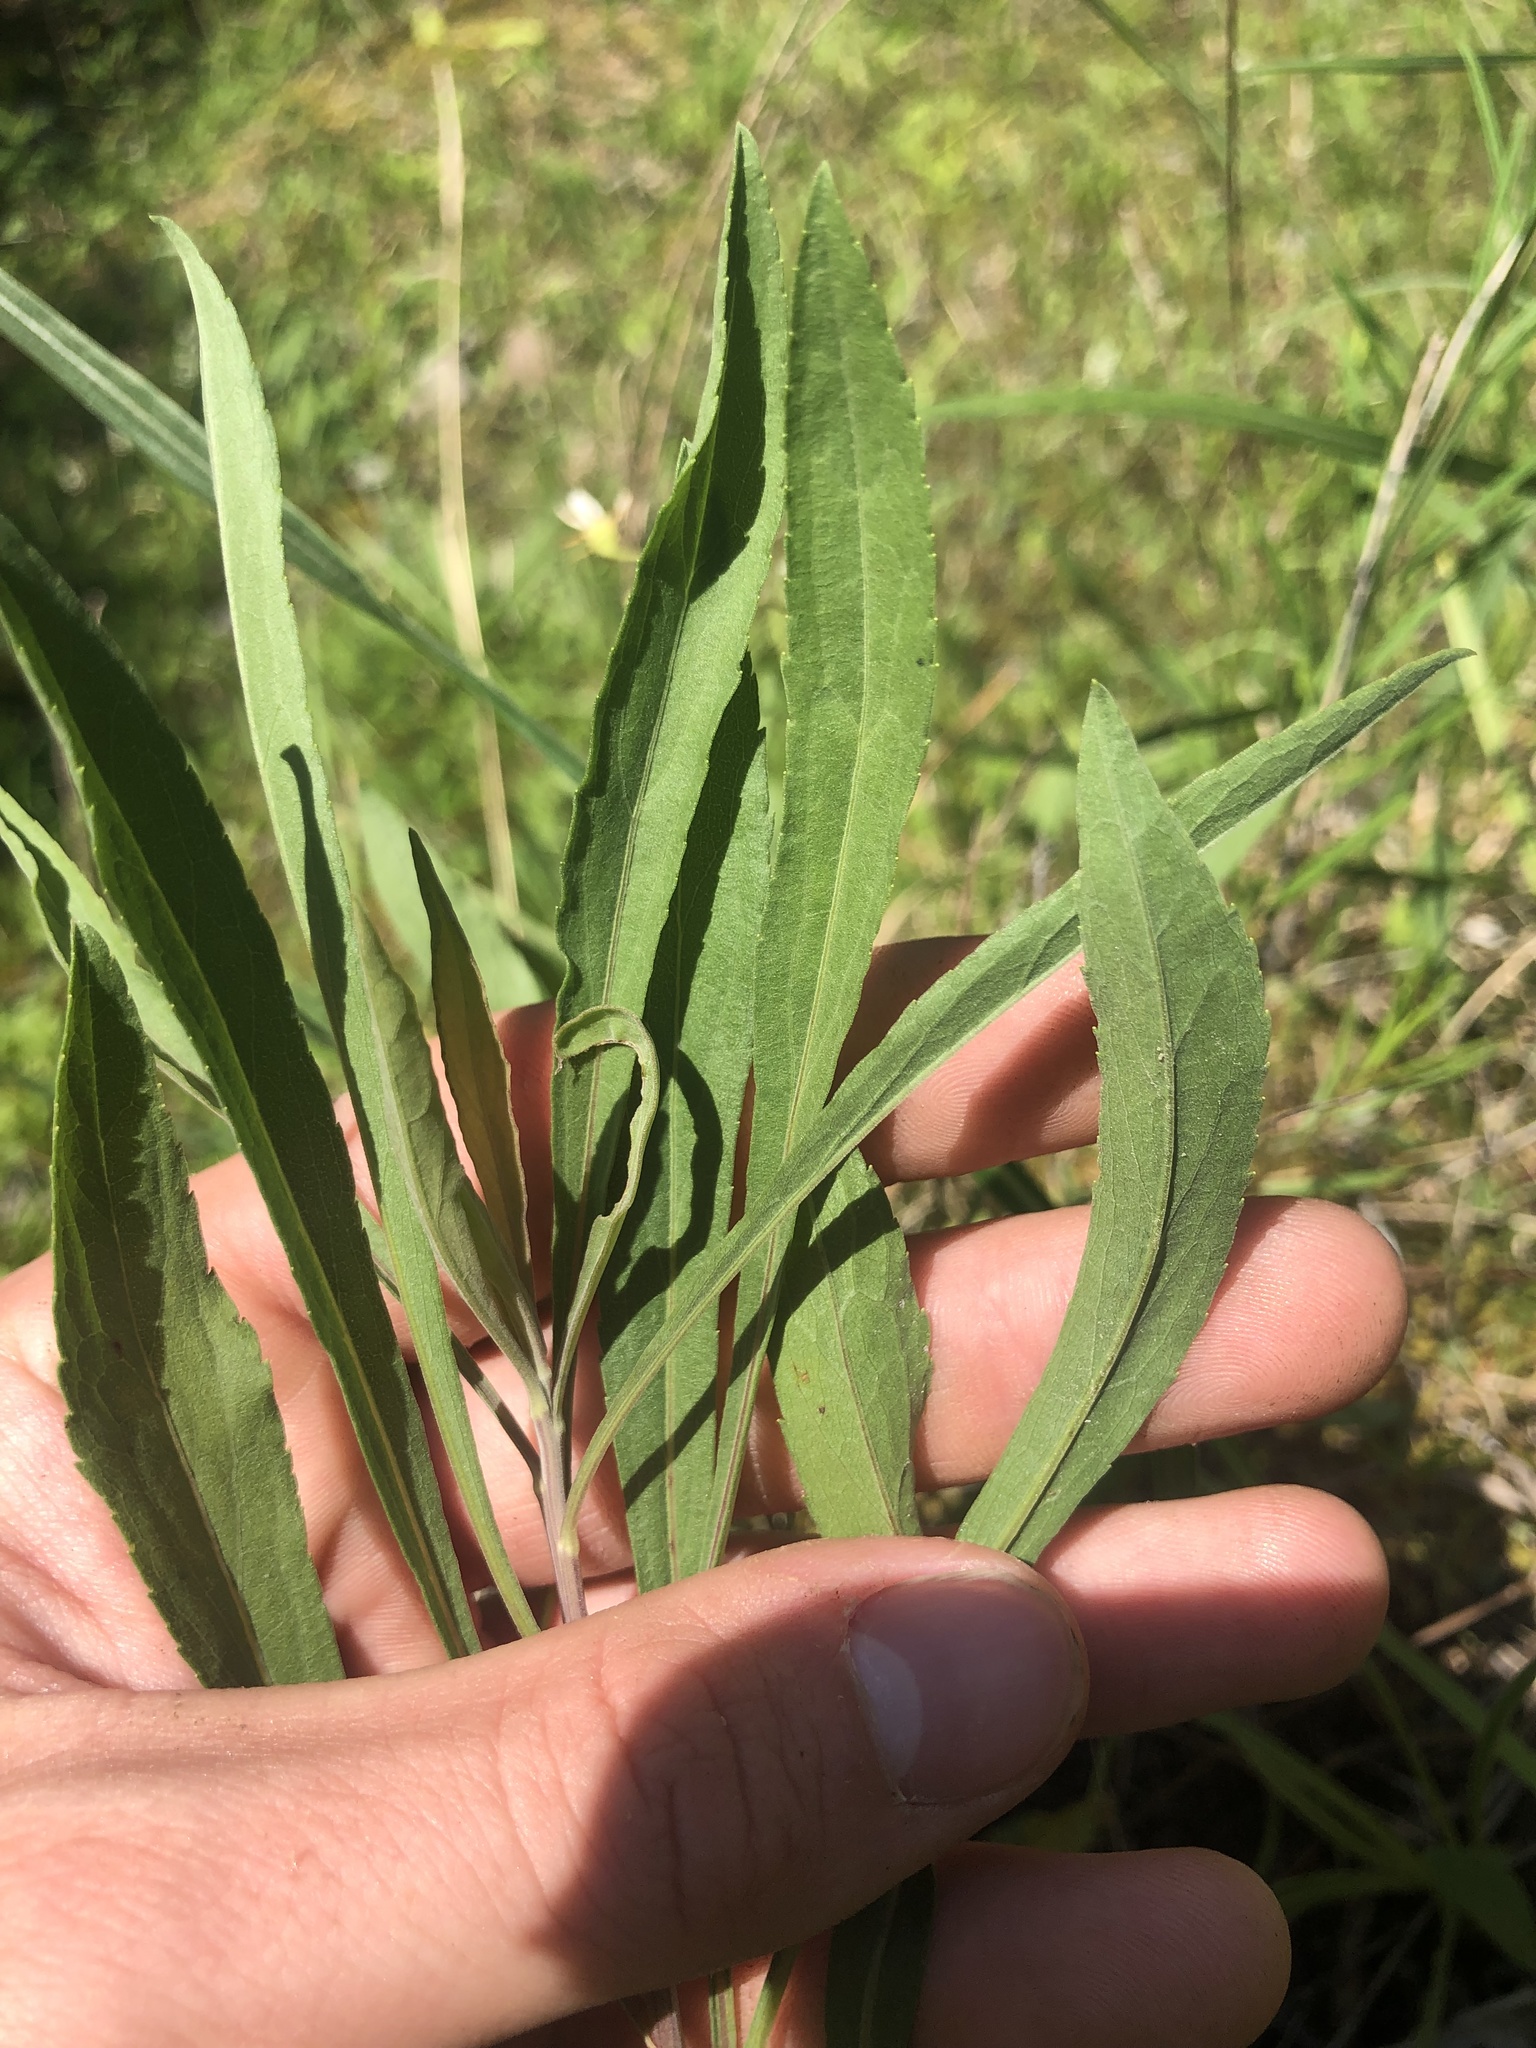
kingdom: Plantae
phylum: Tracheophyta
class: Magnoliopsida
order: Asterales
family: Asteraceae
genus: Solidago
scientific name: Solidago nemoralis
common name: Grey goldenrod
